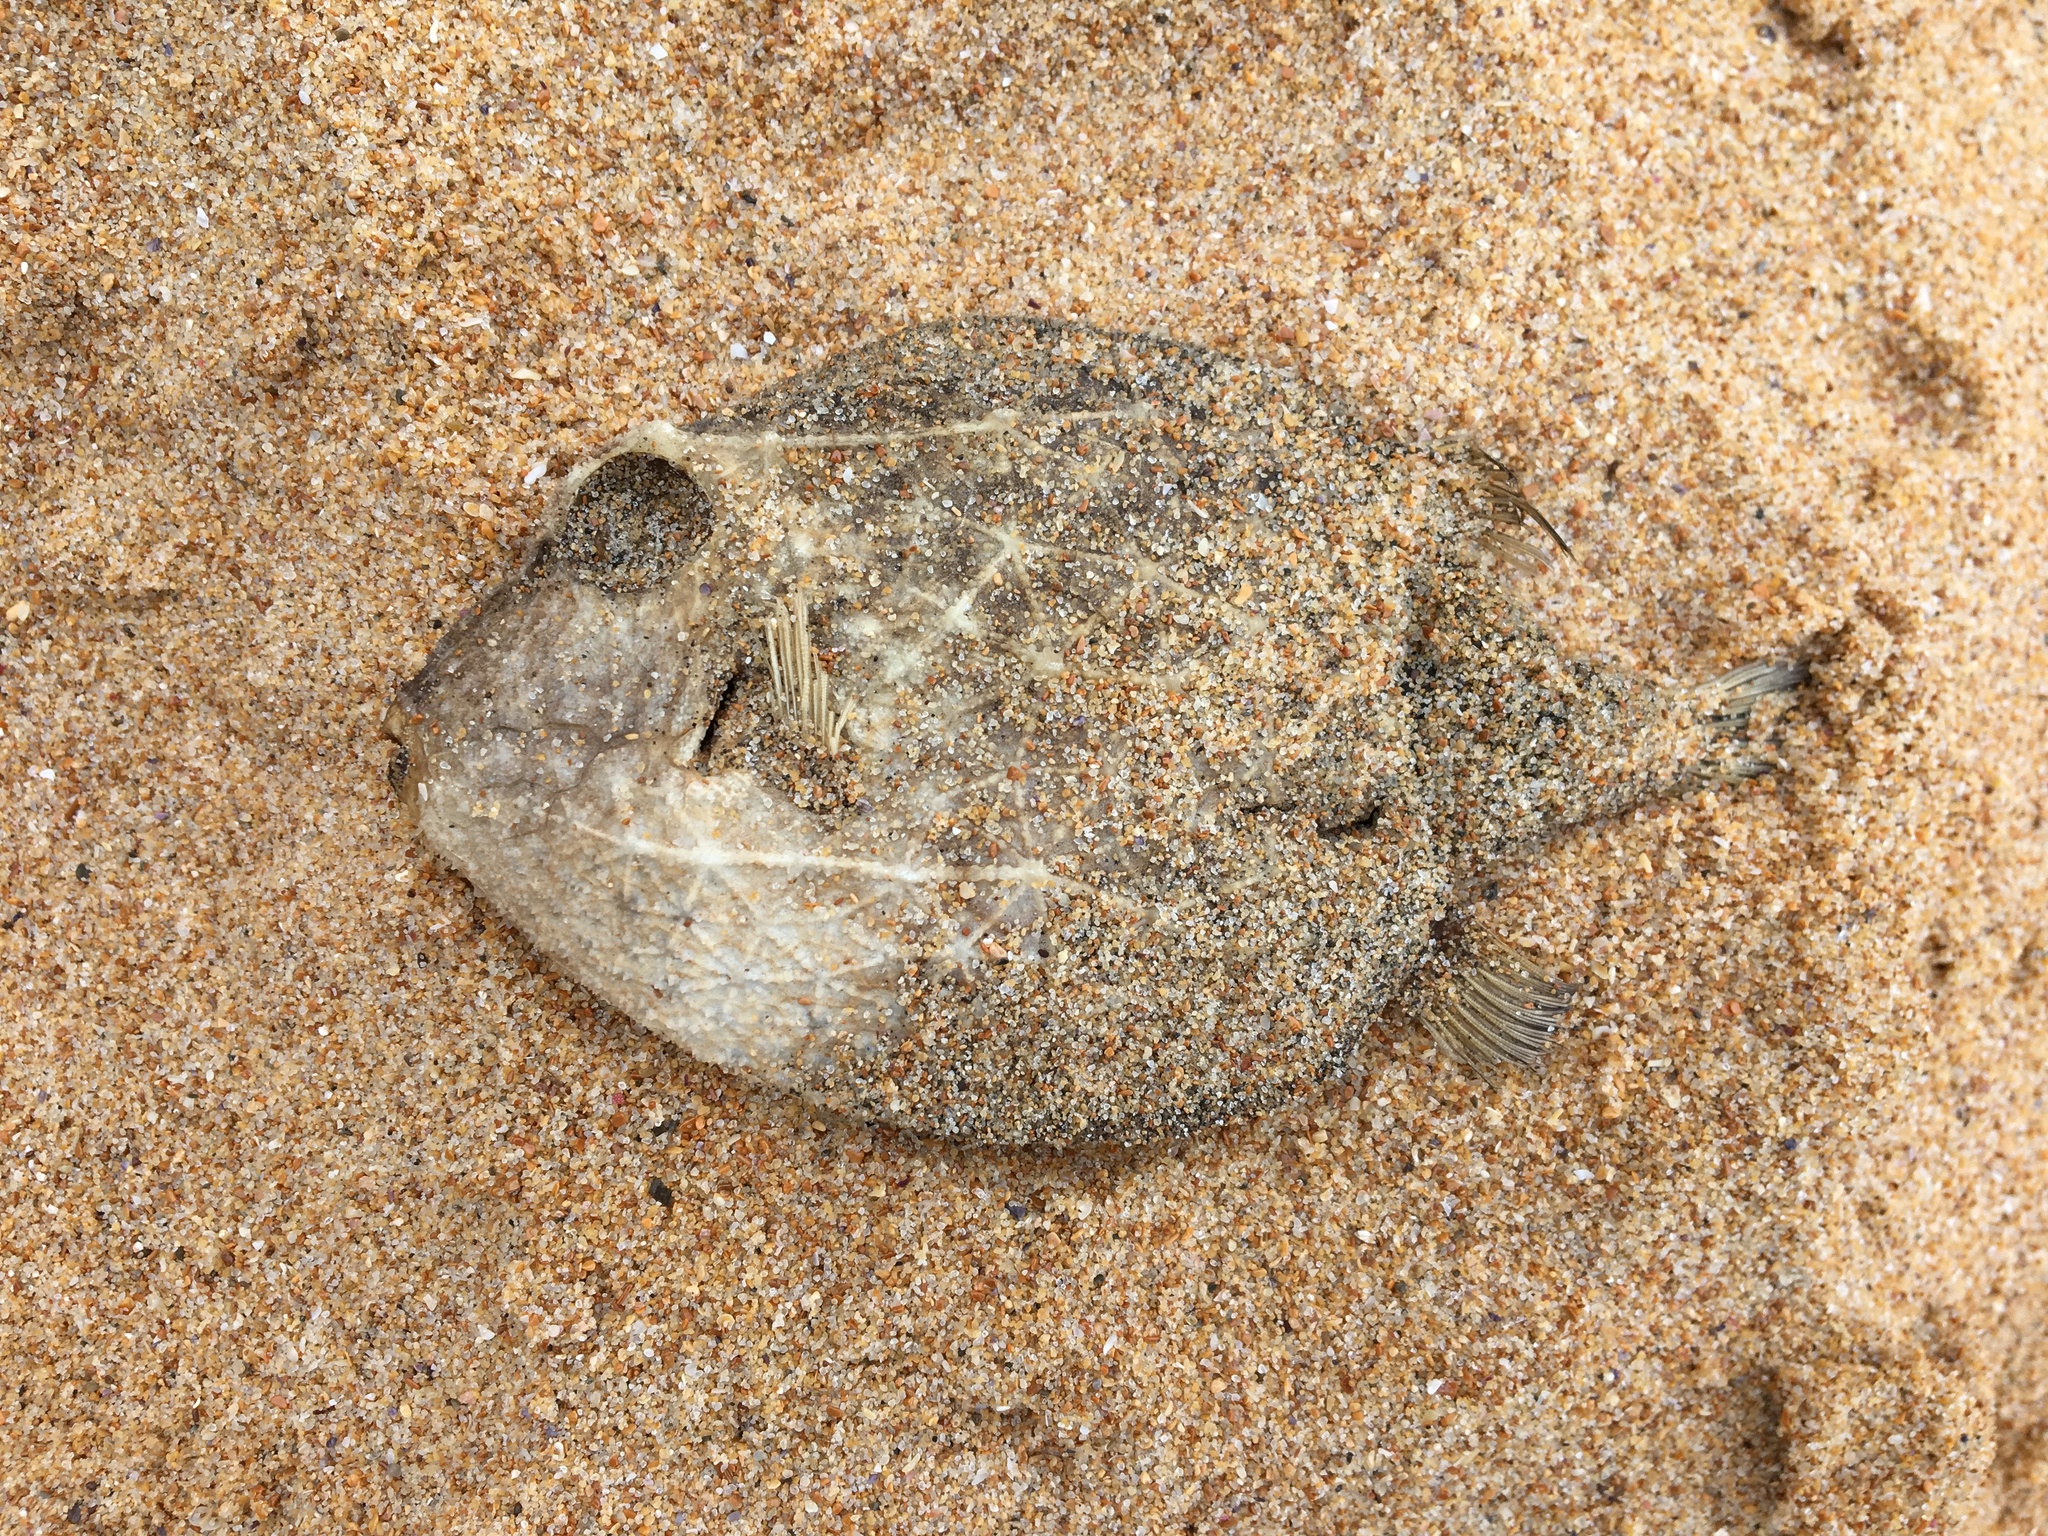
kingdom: Animalia
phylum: Chordata
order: Tetraodontiformes
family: Aracanidae
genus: Anoplocapros
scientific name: Anoplocapros inermis
